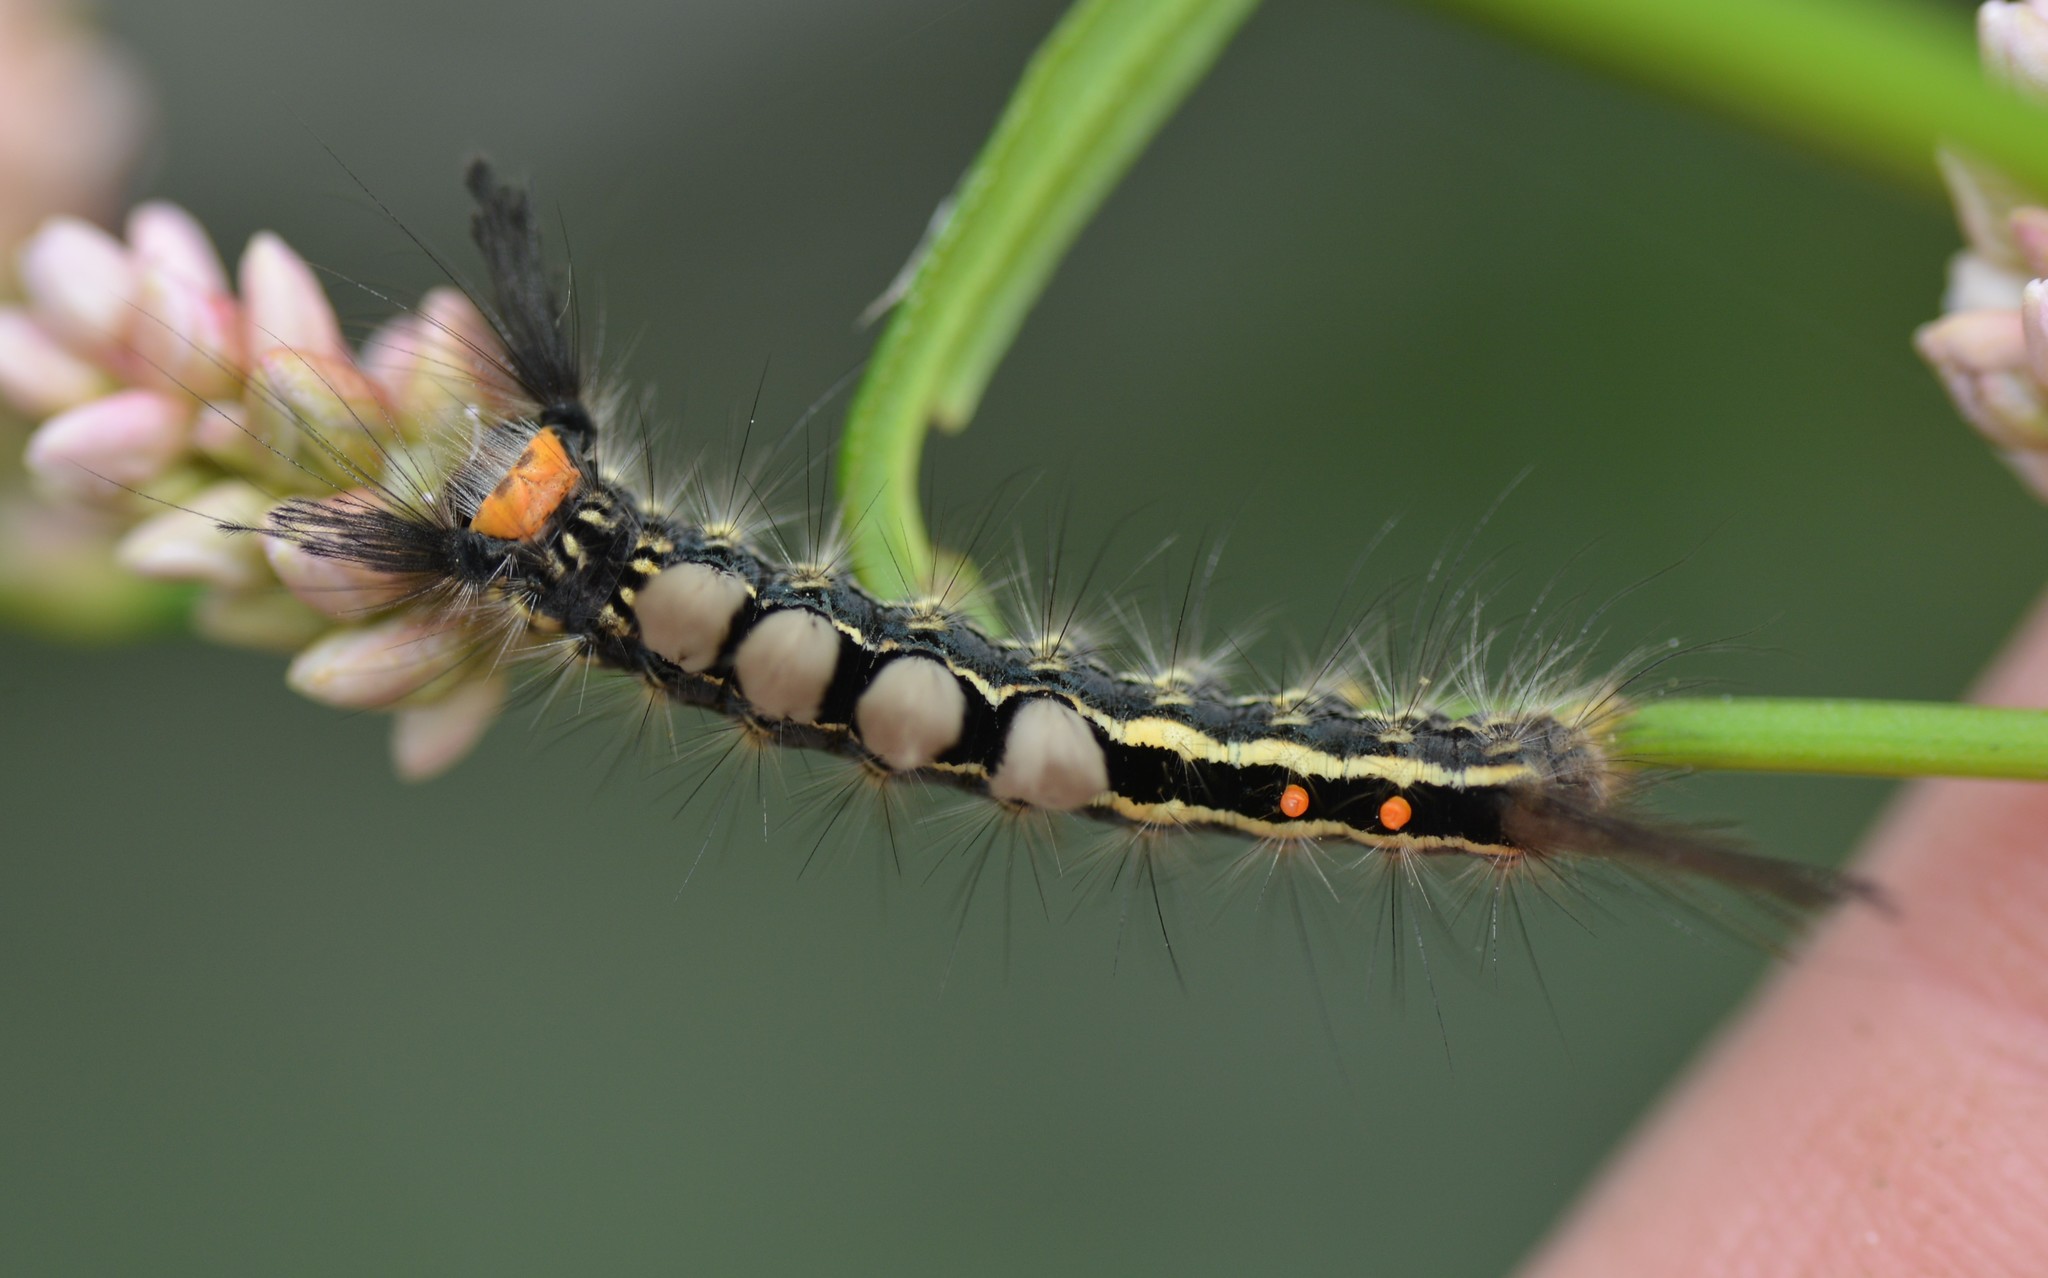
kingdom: Animalia
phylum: Arthropoda
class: Insecta
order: Lepidoptera
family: Erebidae
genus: Orgyia
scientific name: Orgyia leucostigma
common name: White-marked tussock moth
